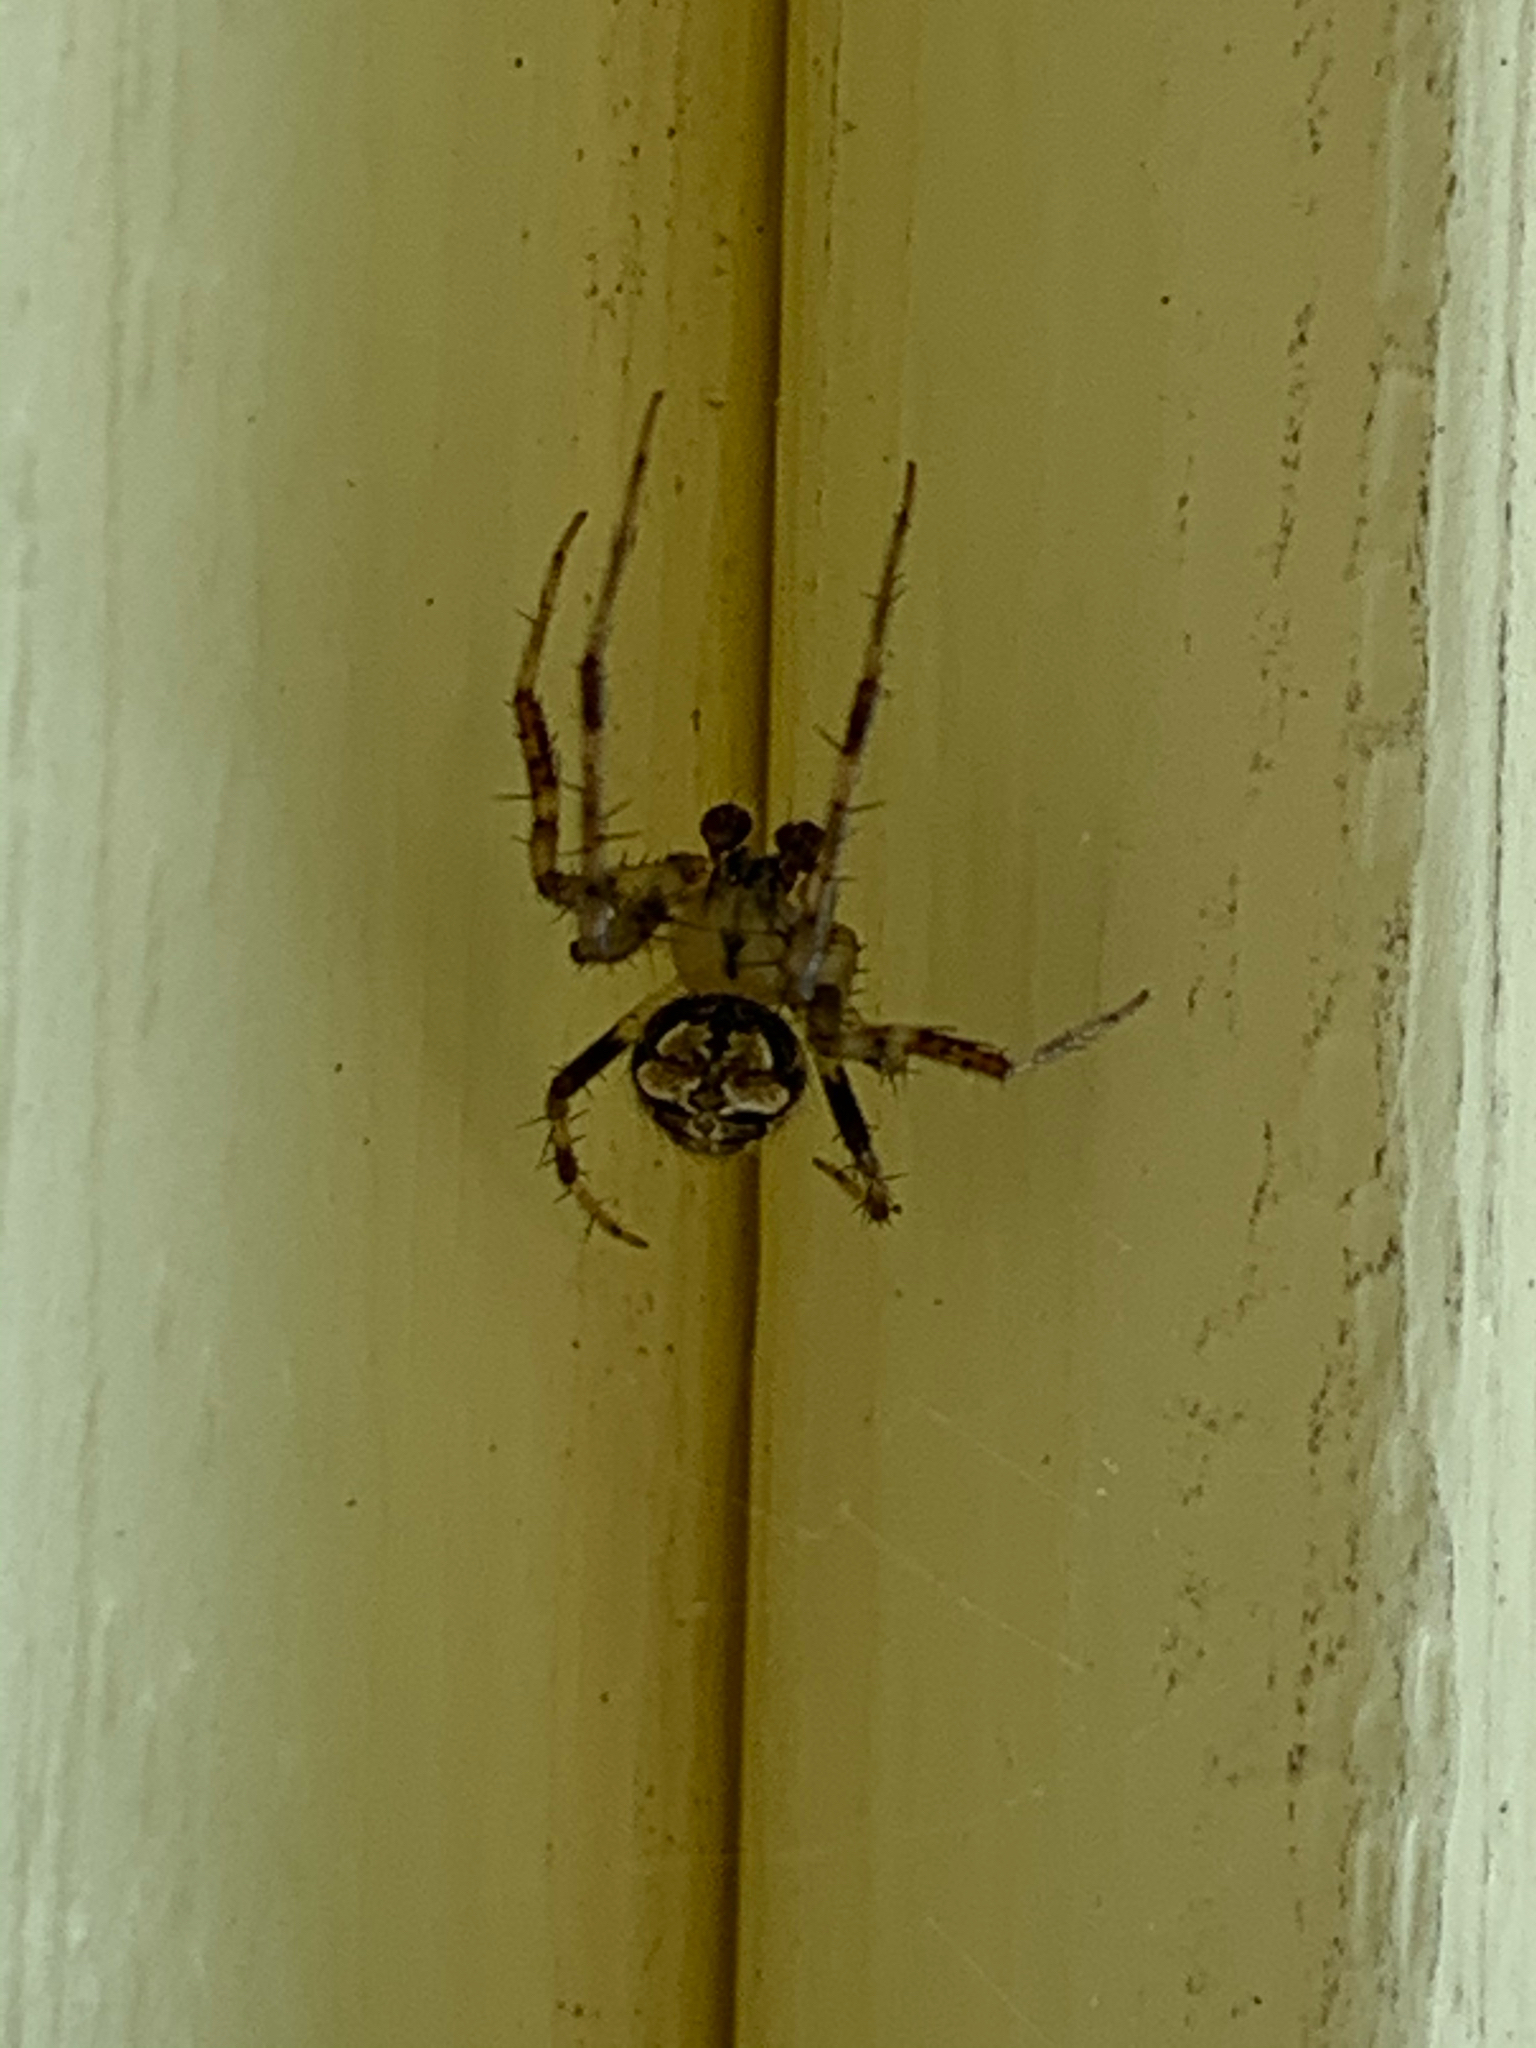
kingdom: Animalia
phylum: Arthropoda
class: Arachnida
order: Araneae
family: Araneidae
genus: Araneus
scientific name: Araneus pegnia
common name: Orb weavers
